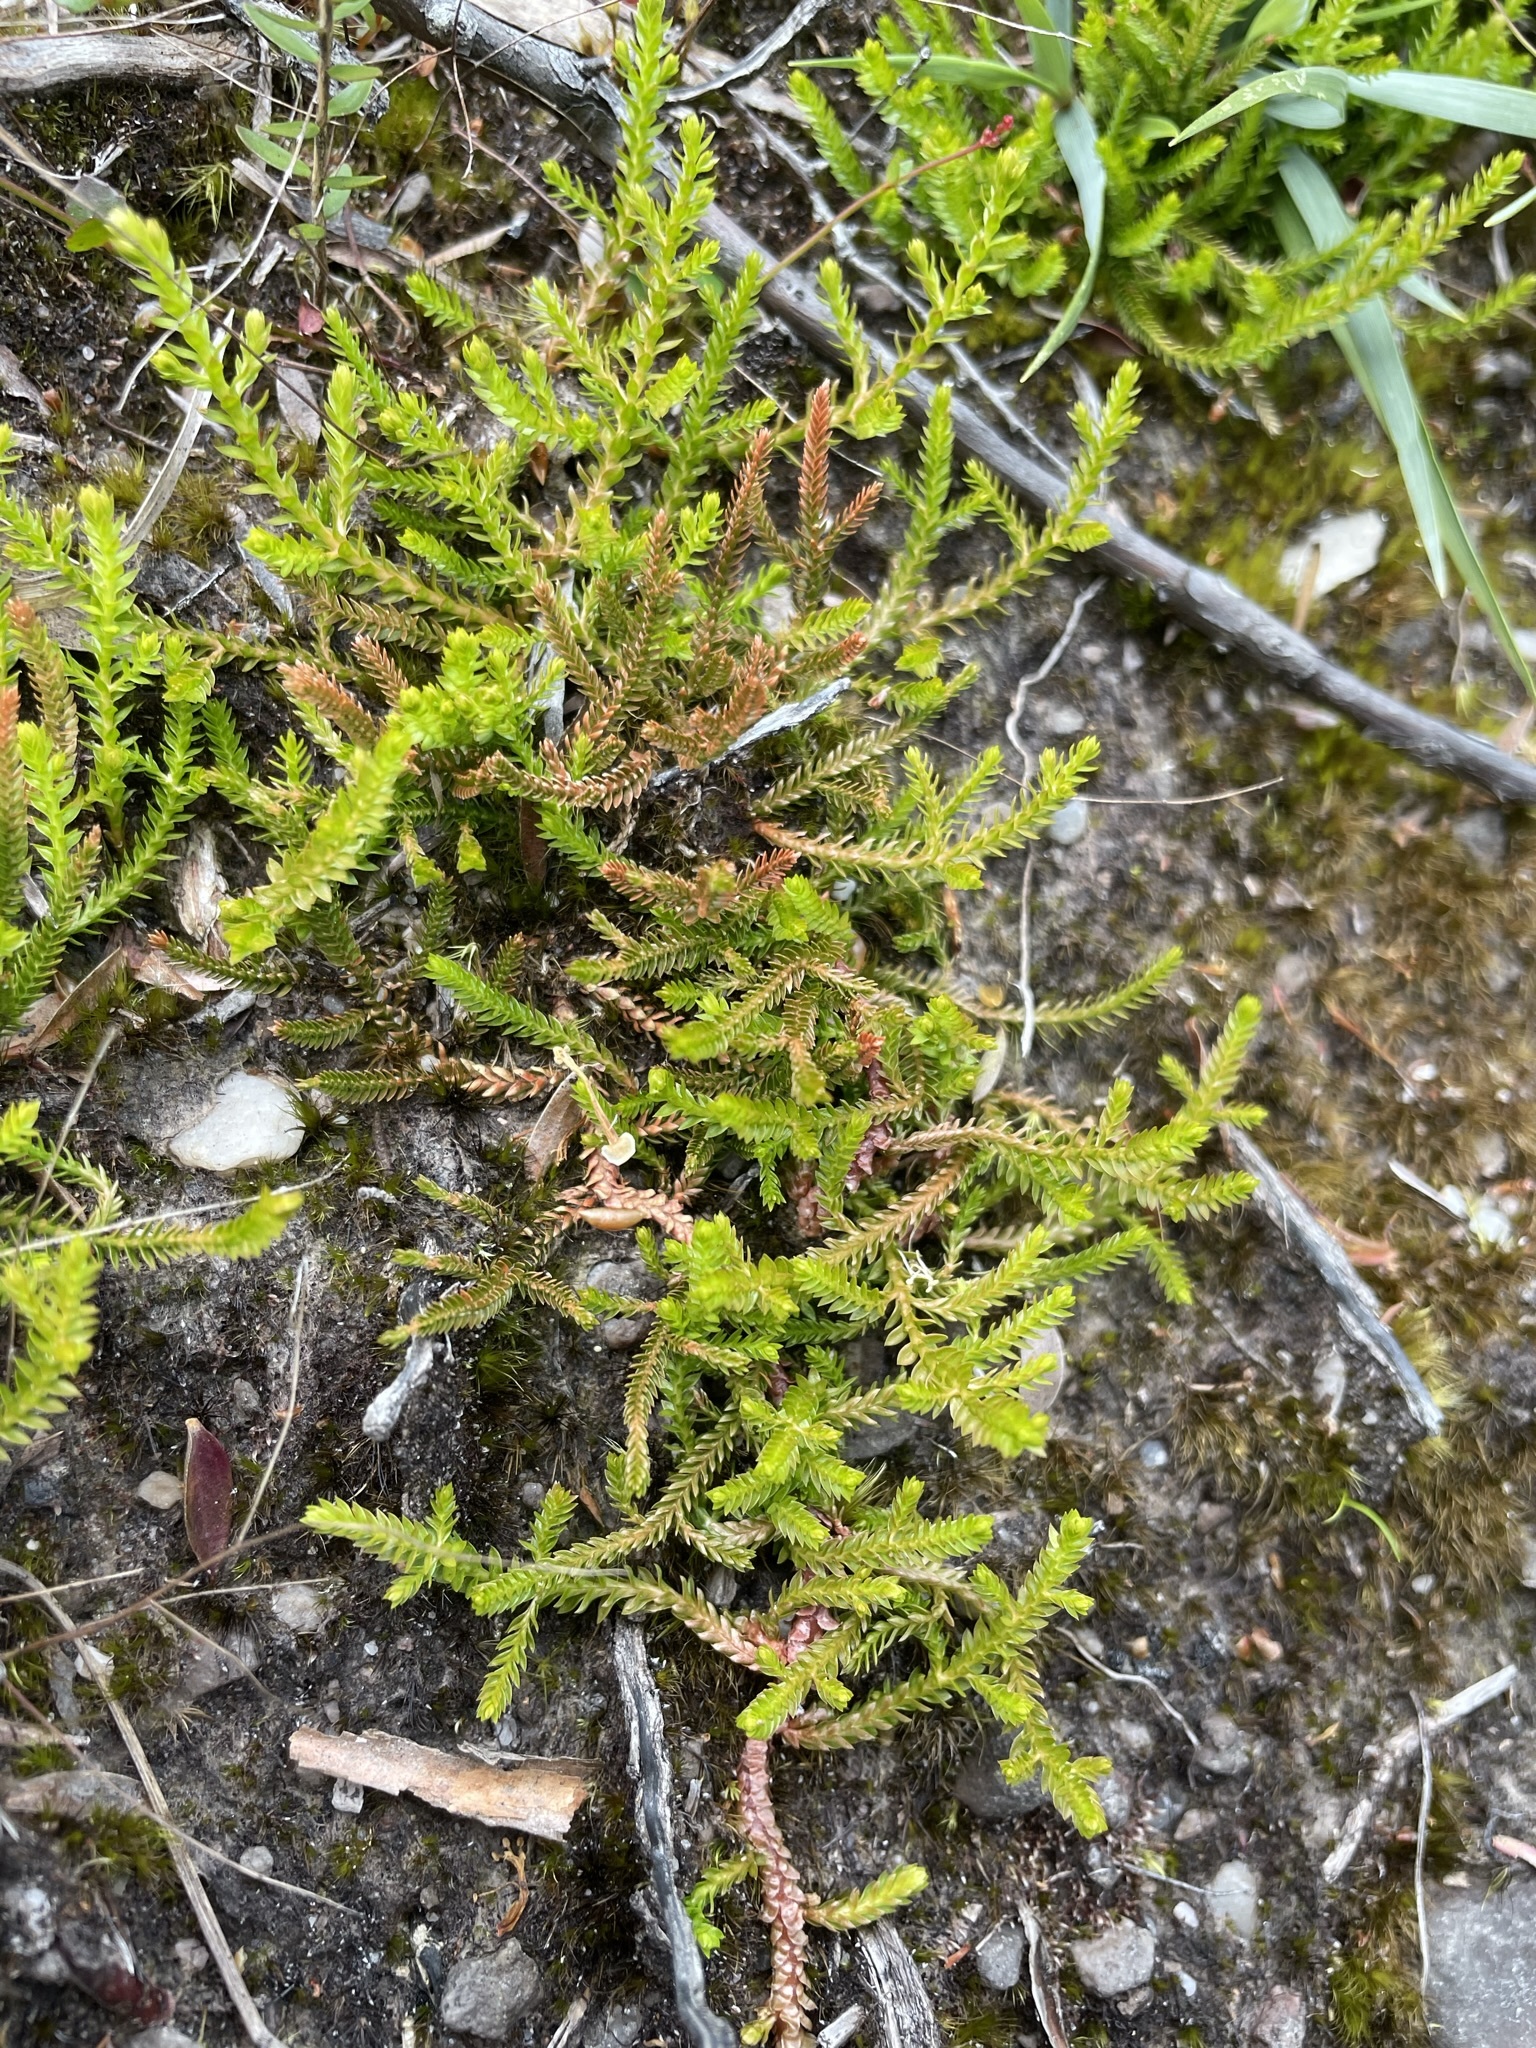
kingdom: Plantae
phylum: Tracheophyta
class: Lycopodiopsida
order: Selaginellales
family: Selaginellaceae
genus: Selaginella
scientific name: Selaginella uliginosa
